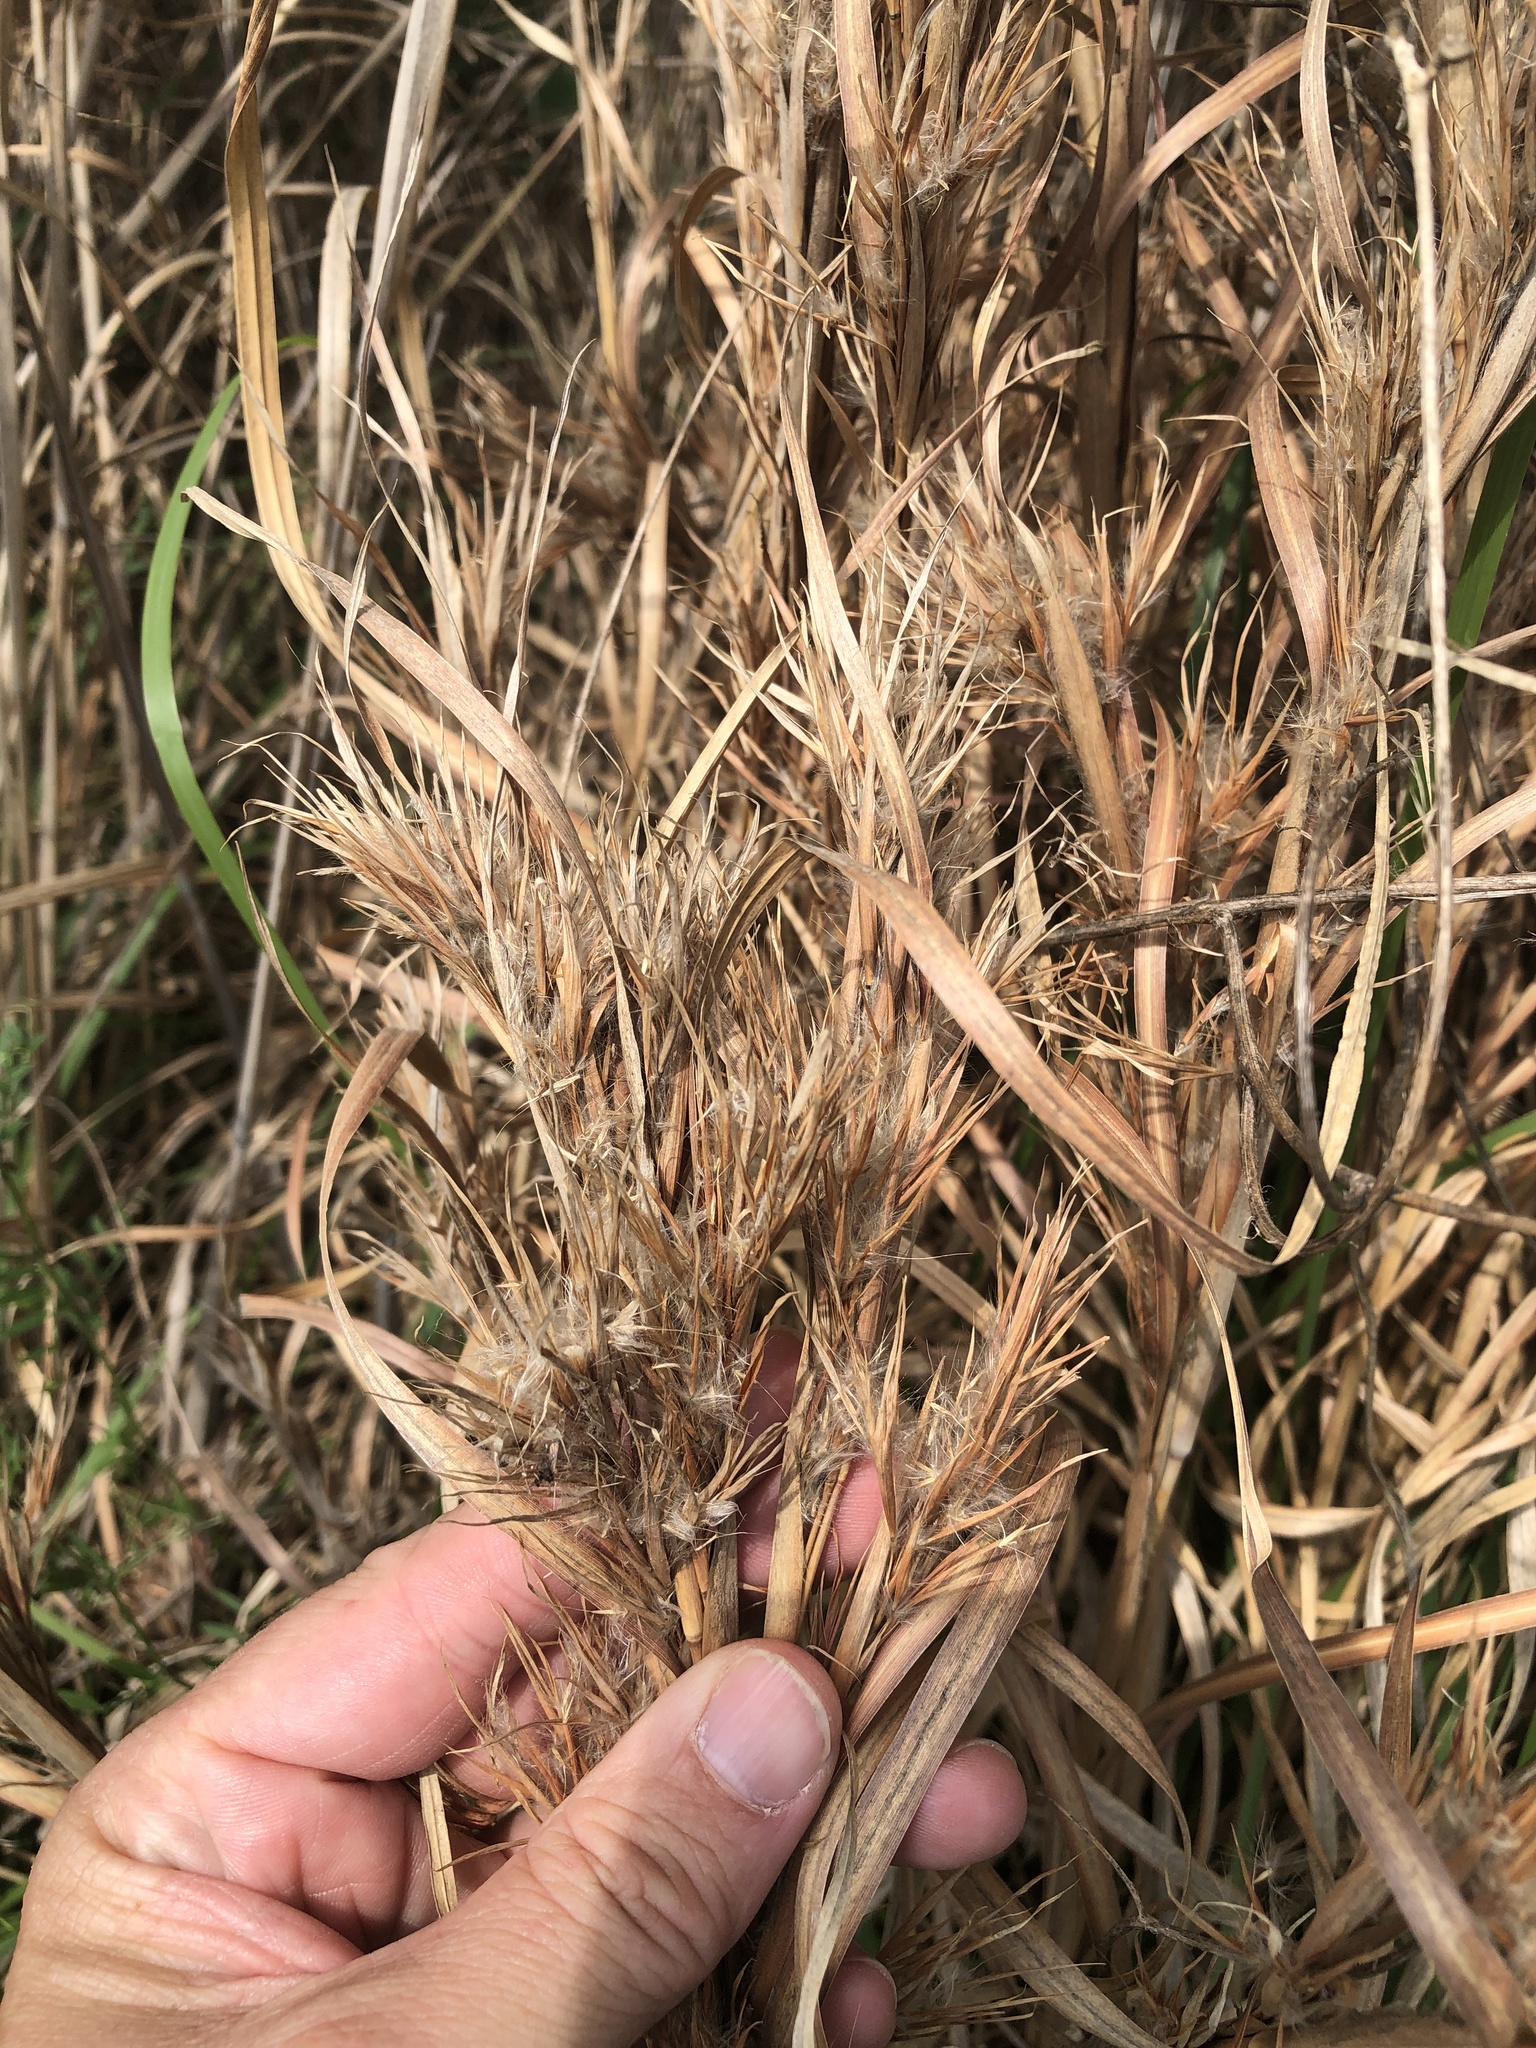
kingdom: Plantae
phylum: Tracheophyta
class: Liliopsida
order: Poales
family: Poaceae
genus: Andropogon
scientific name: Andropogon tenuispatheus
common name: Bushy bluestem
